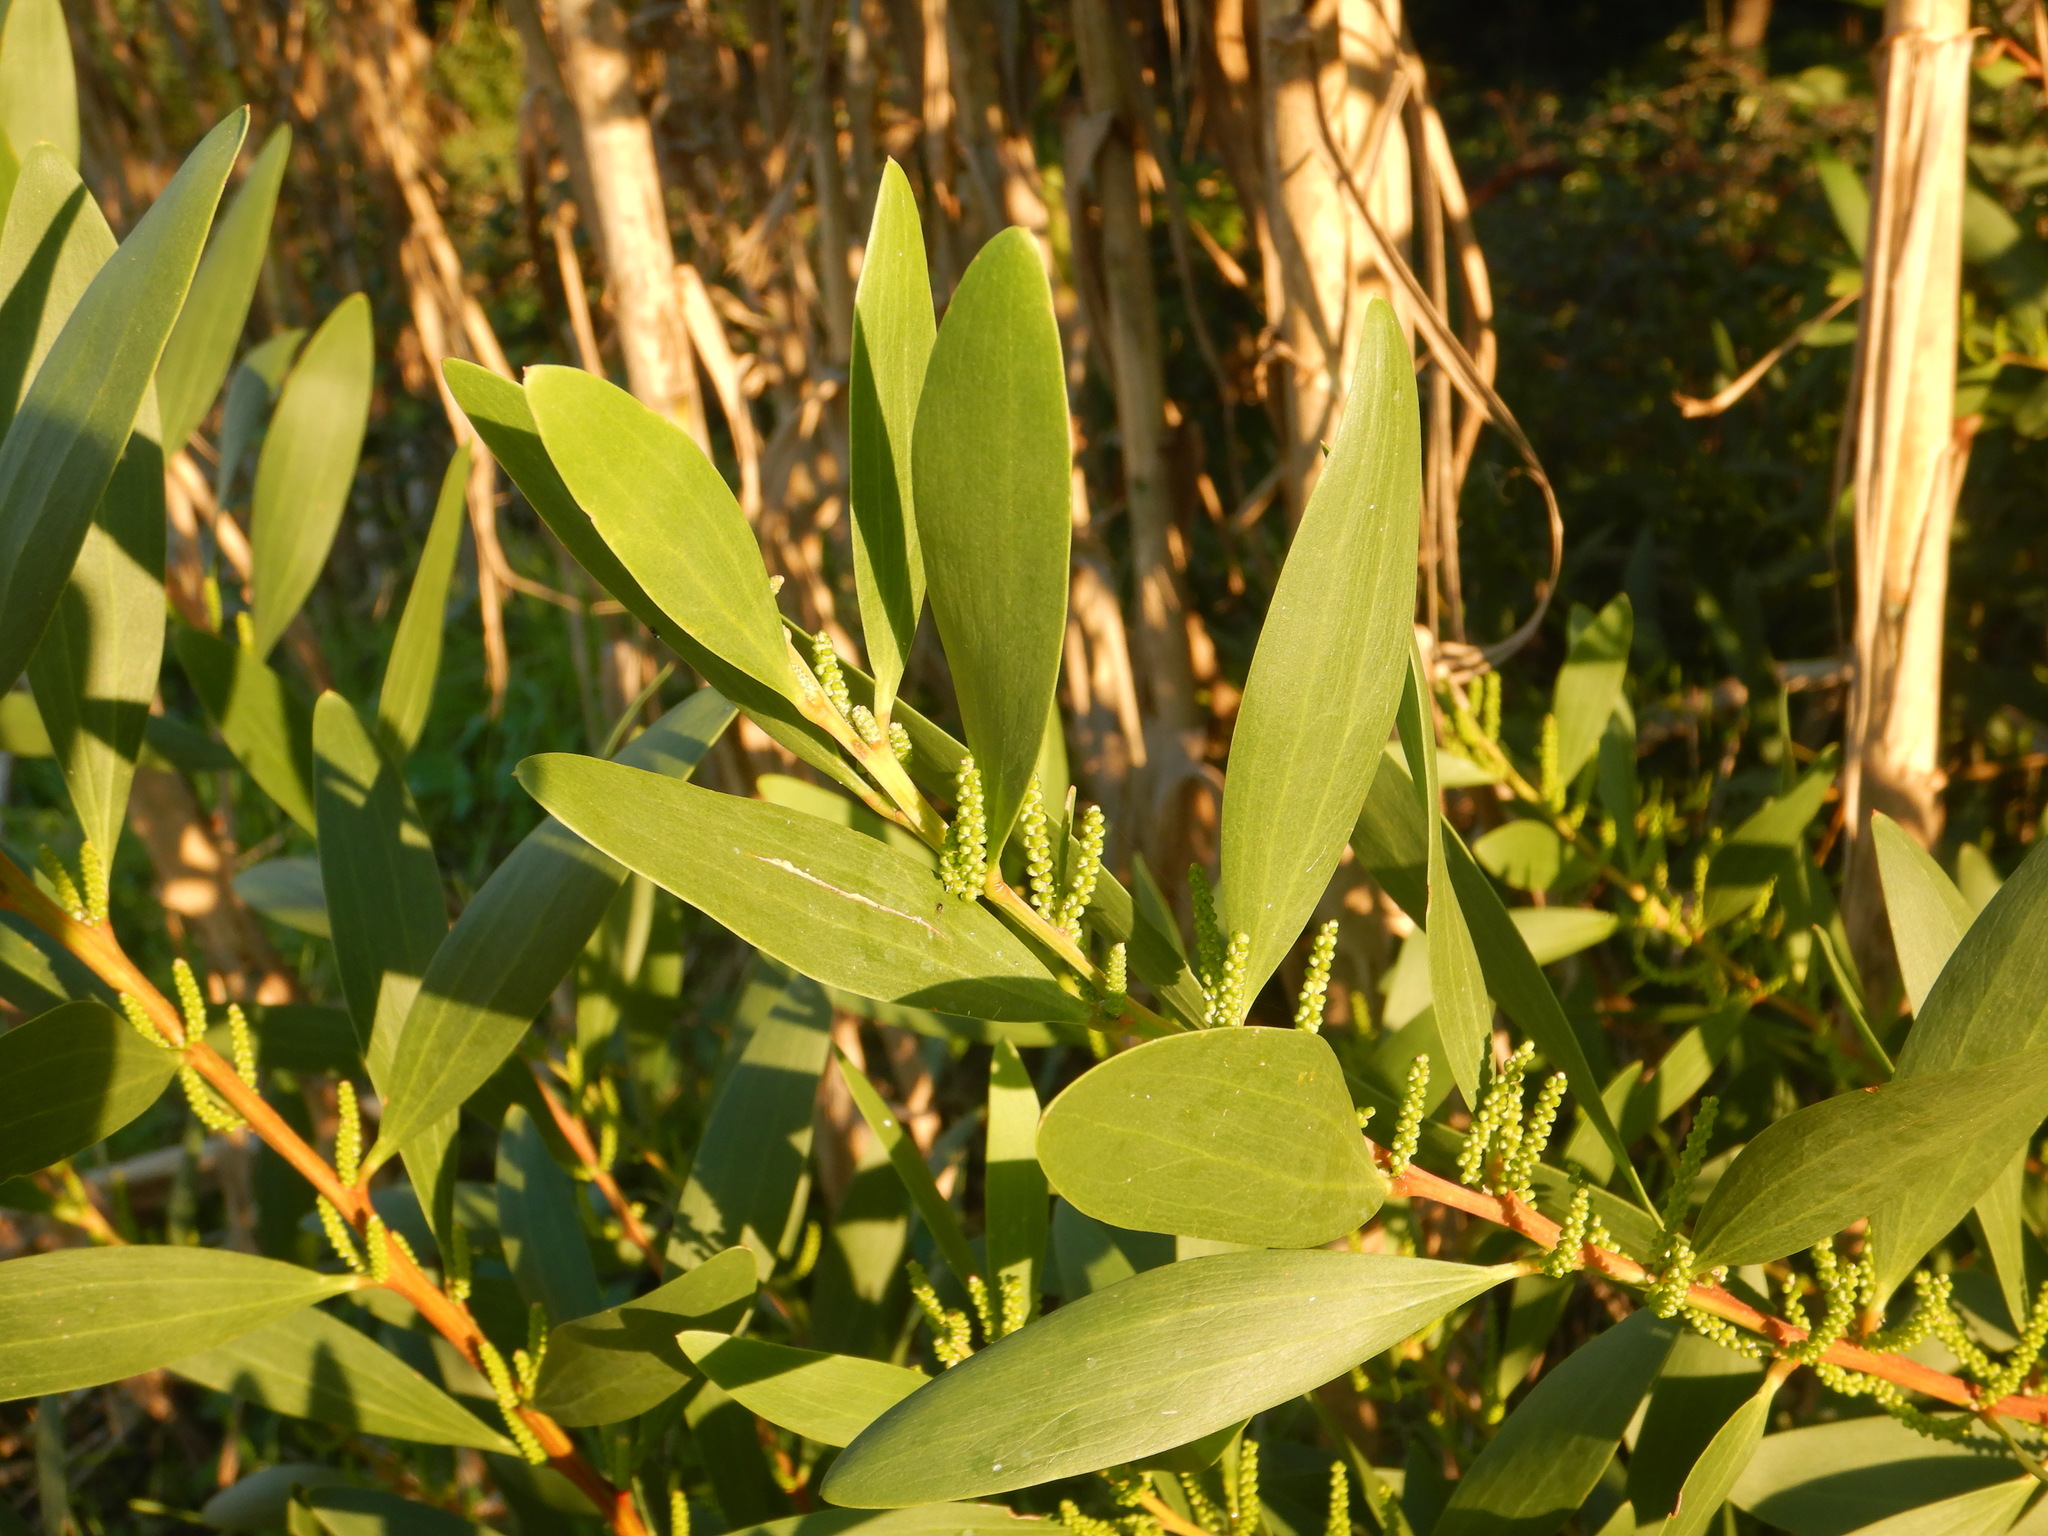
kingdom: Plantae
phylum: Tracheophyta
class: Magnoliopsida
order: Fabales
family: Fabaceae
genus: Acacia
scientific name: Acacia longifolia
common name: Sydney golden wattle
